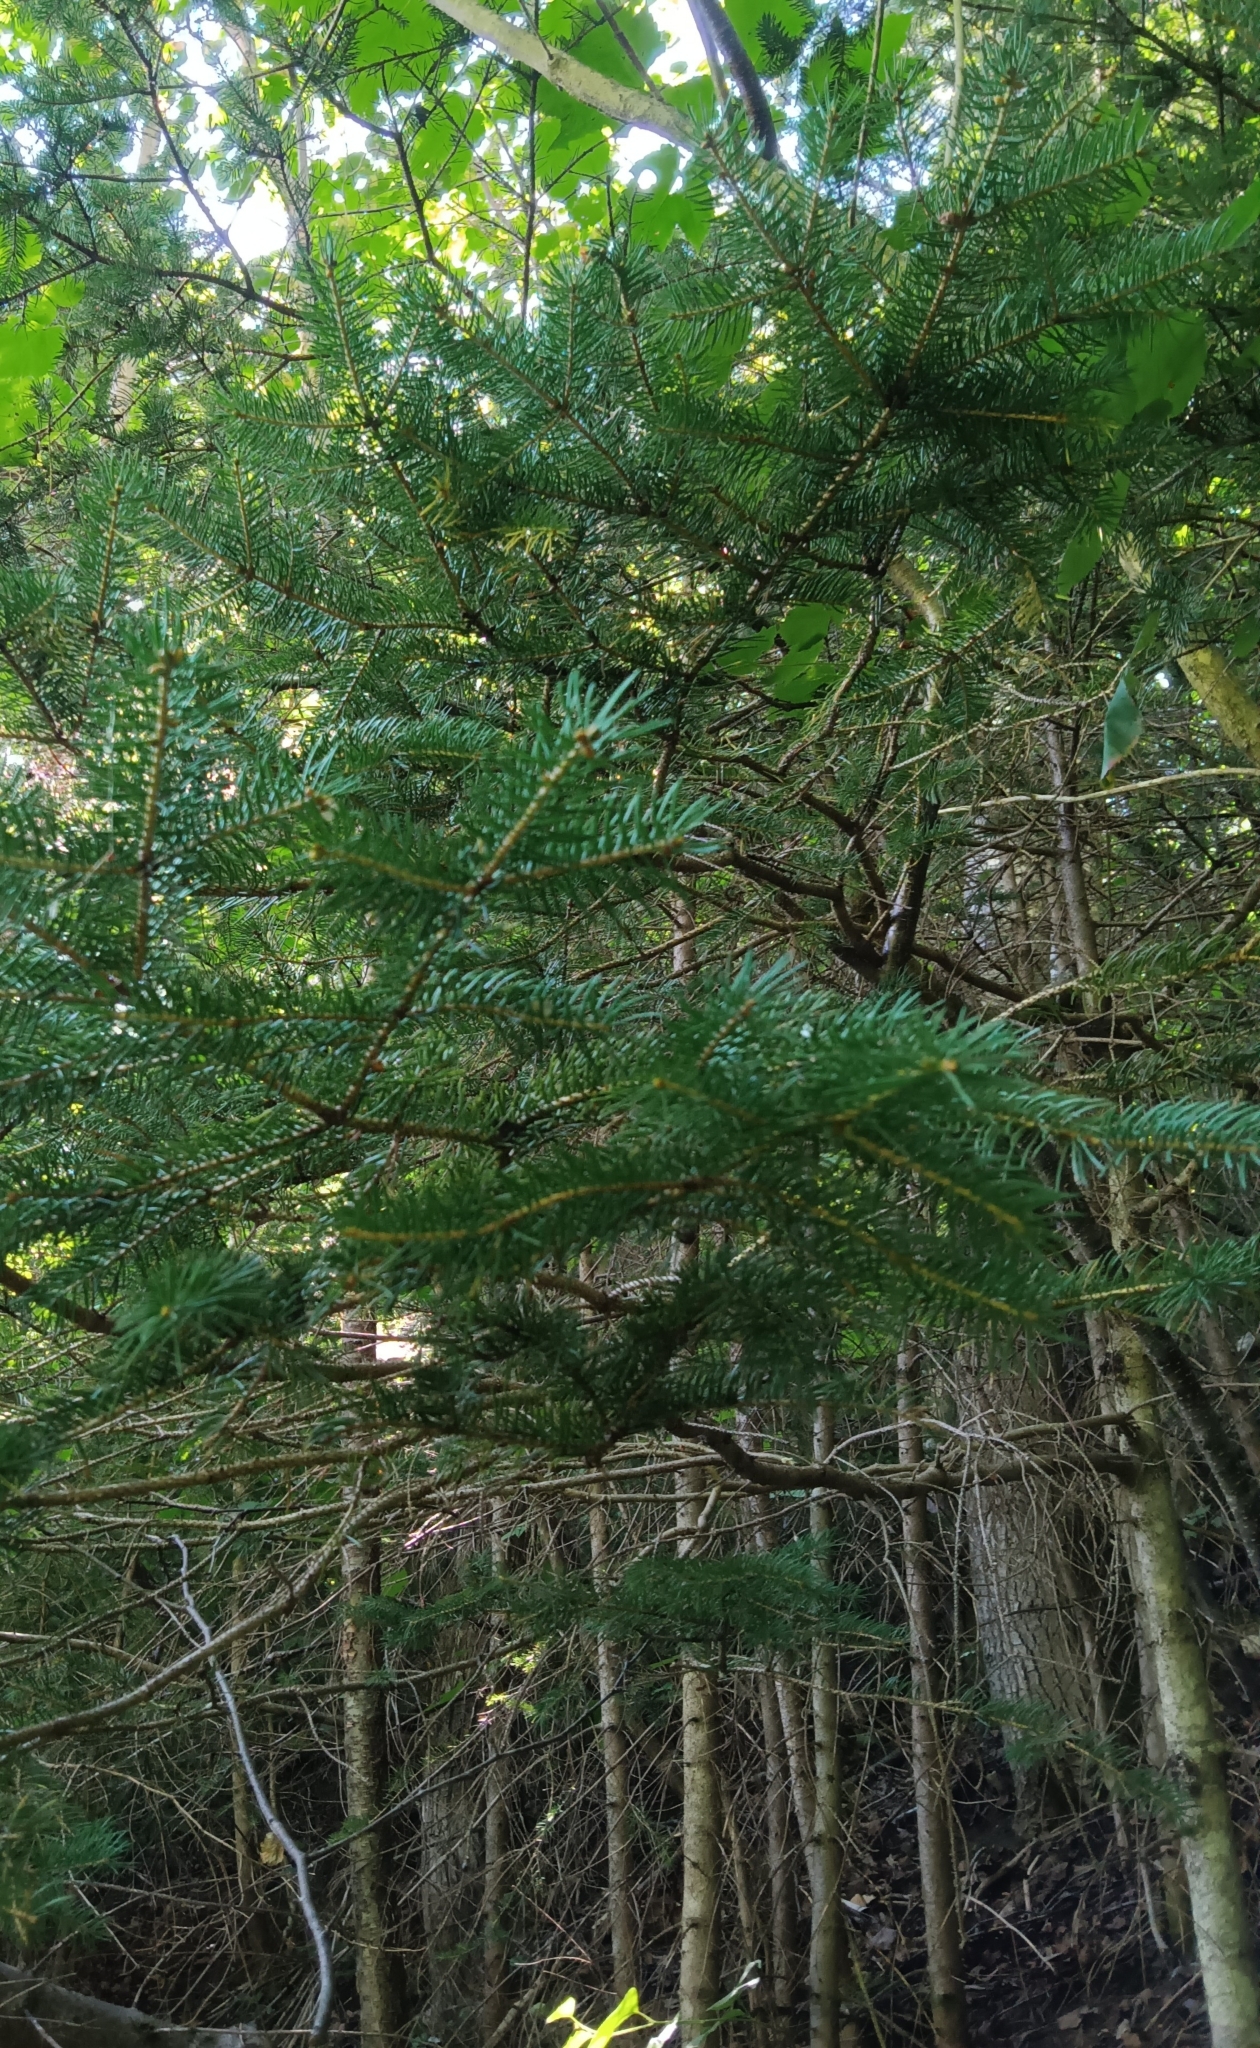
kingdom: Plantae
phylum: Tracheophyta
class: Pinopsida
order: Pinales
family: Pinaceae
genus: Abies
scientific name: Abies balsamea
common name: Balsam fir
